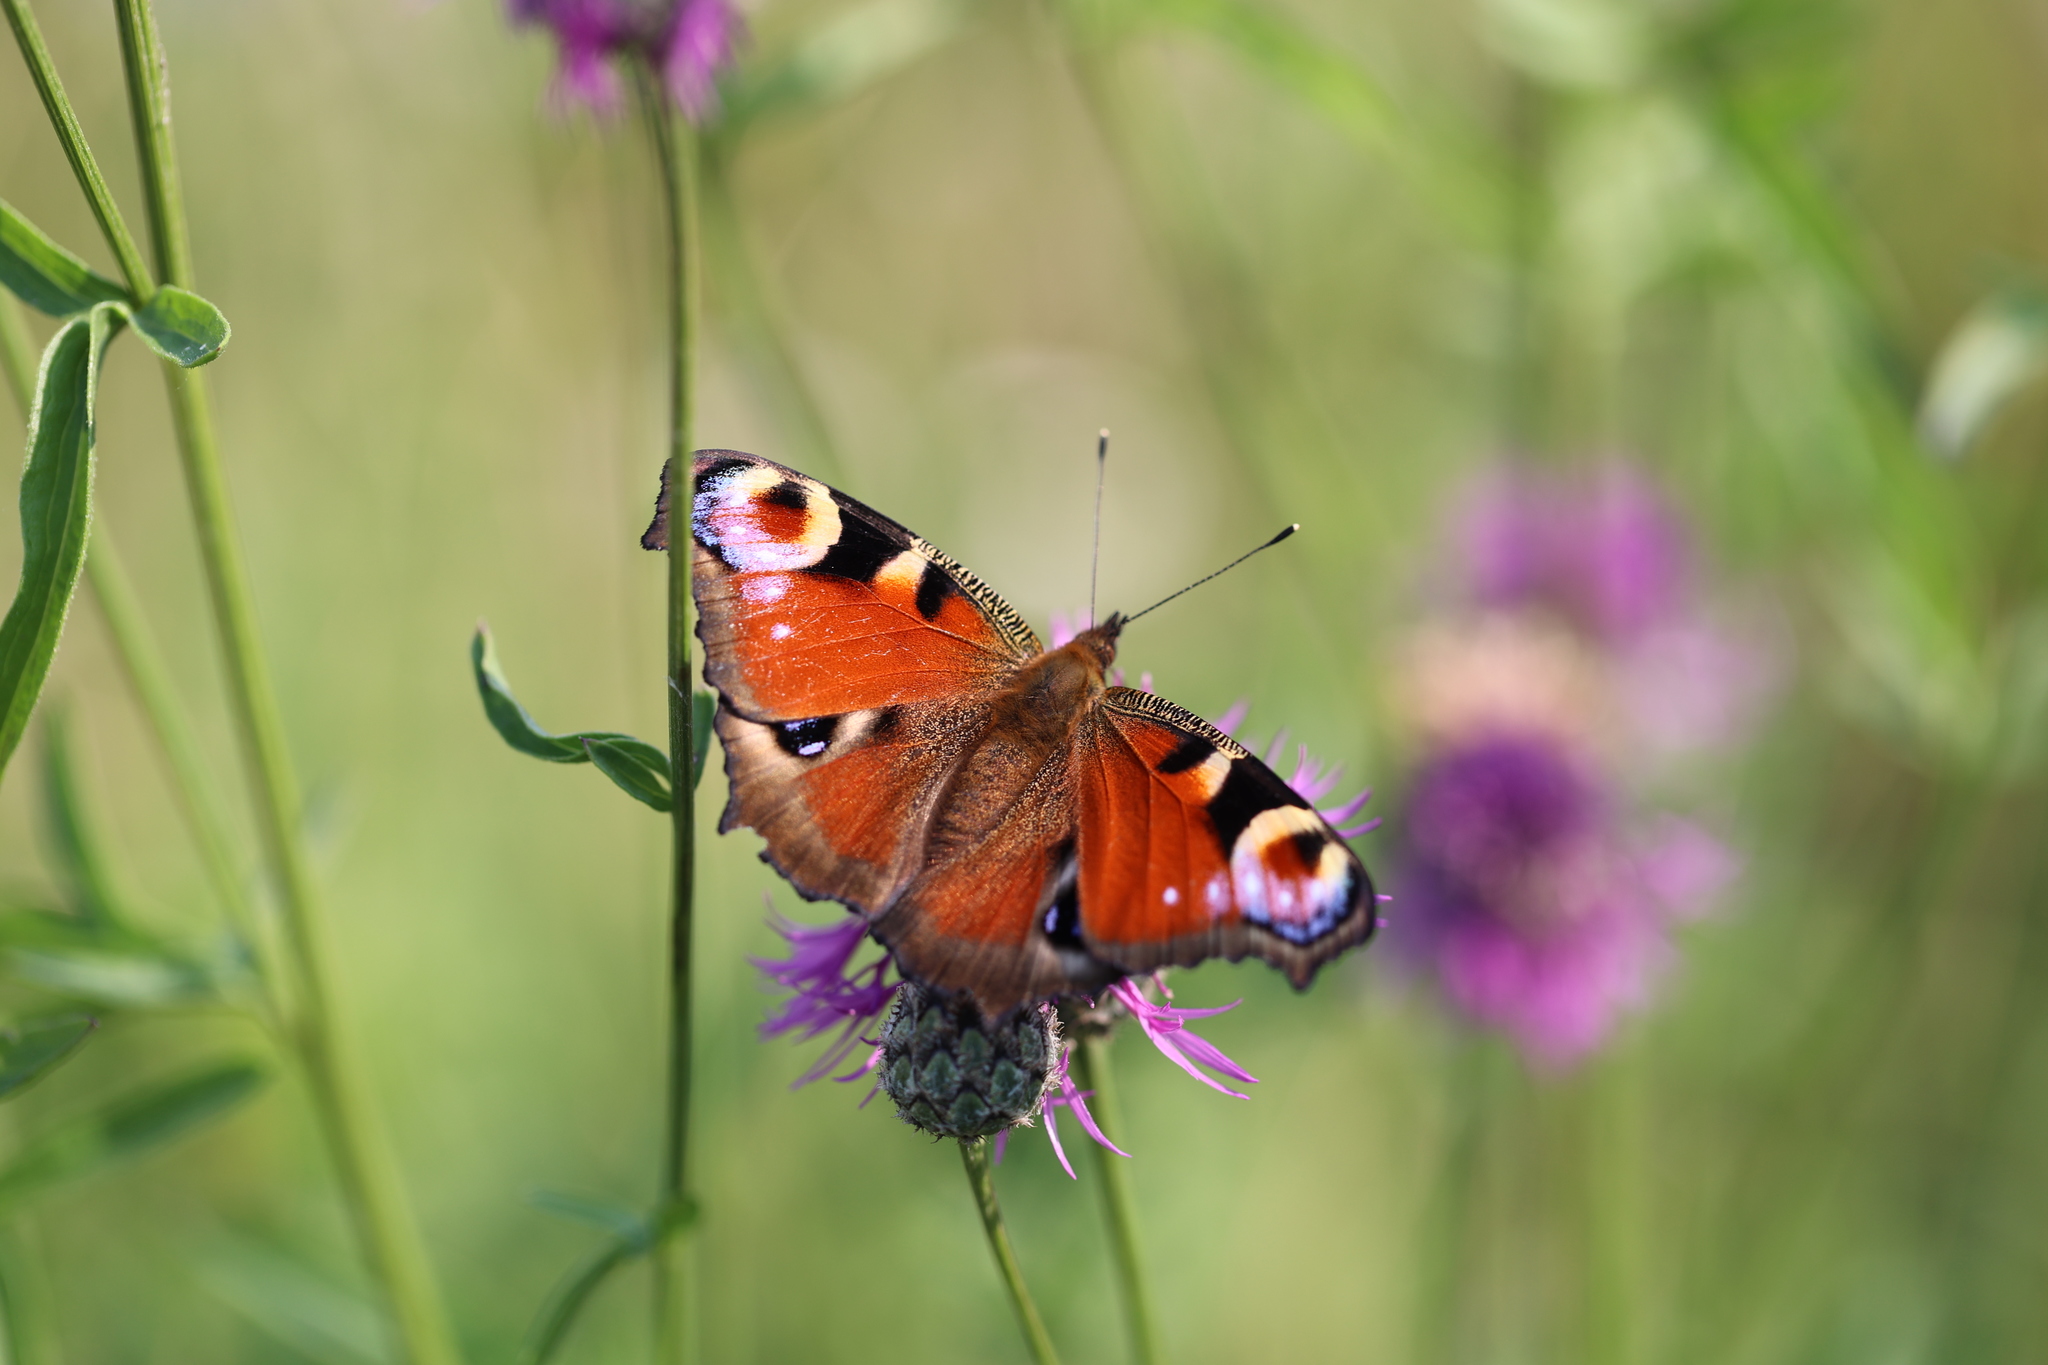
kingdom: Animalia
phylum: Arthropoda
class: Insecta
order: Lepidoptera
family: Nymphalidae
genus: Aglais
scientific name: Aglais io
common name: Peacock
